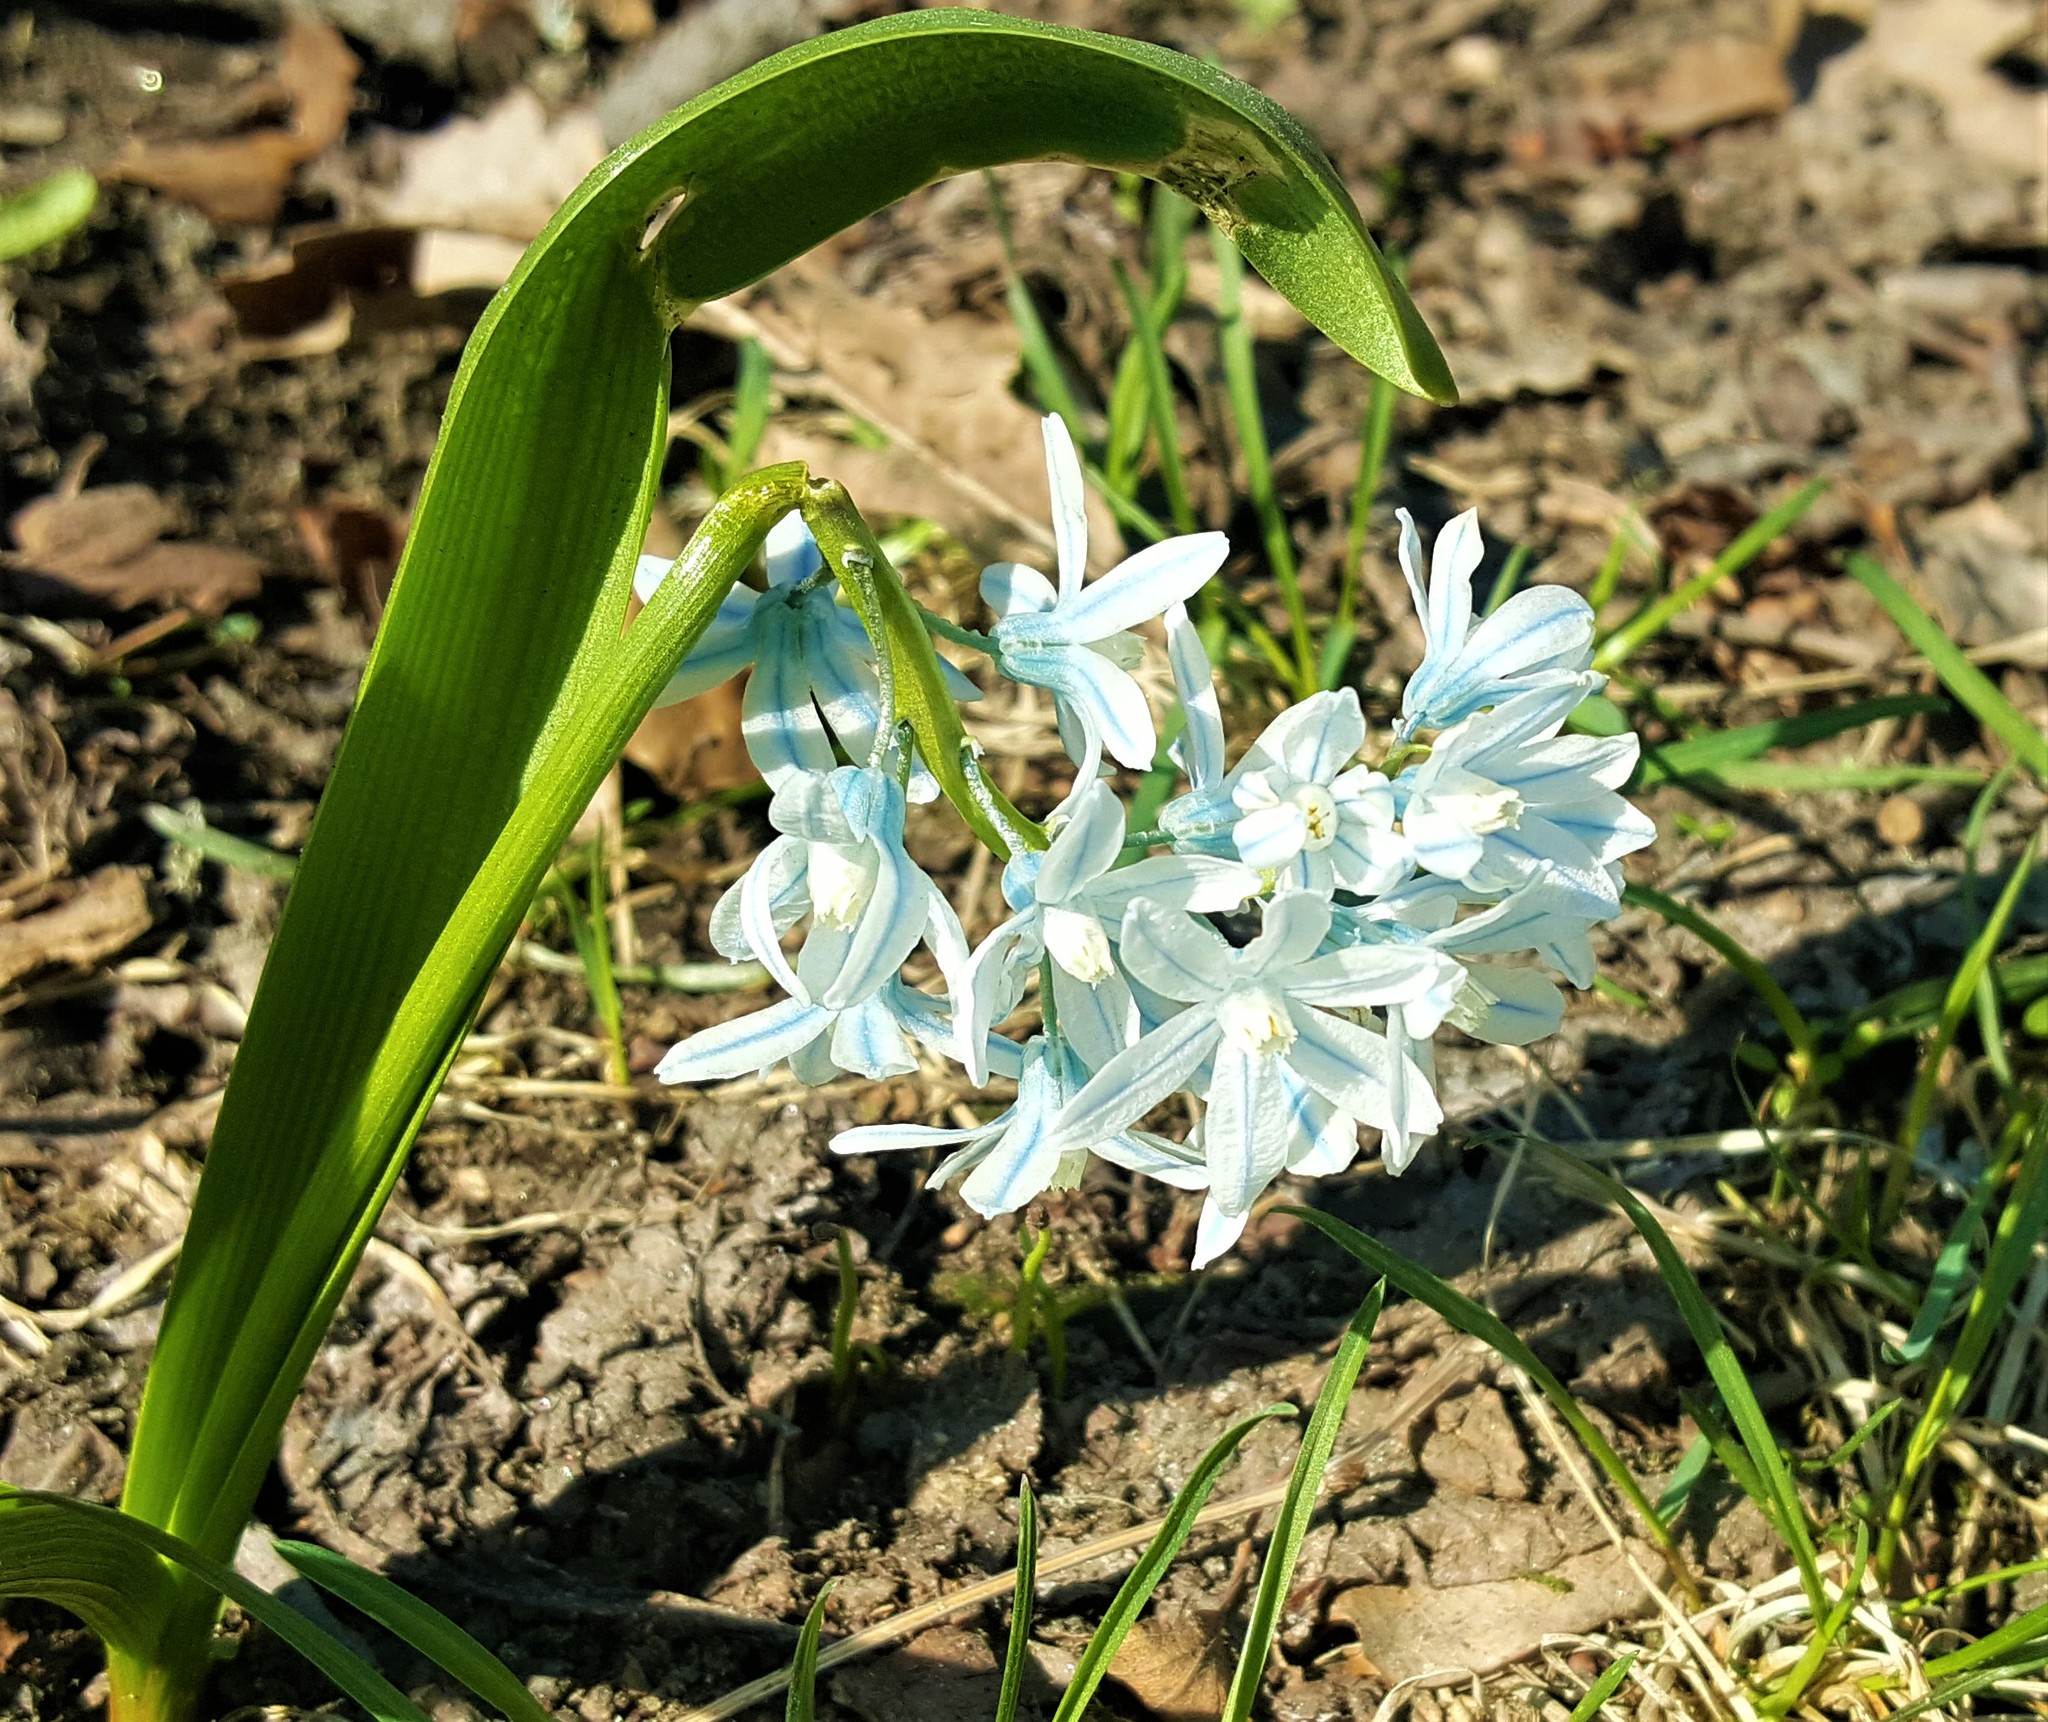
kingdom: Plantae
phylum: Tracheophyta
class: Liliopsida
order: Asparagales
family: Asparagaceae
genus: Puschkinia
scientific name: Puschkinia scilloides
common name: Striped squill
